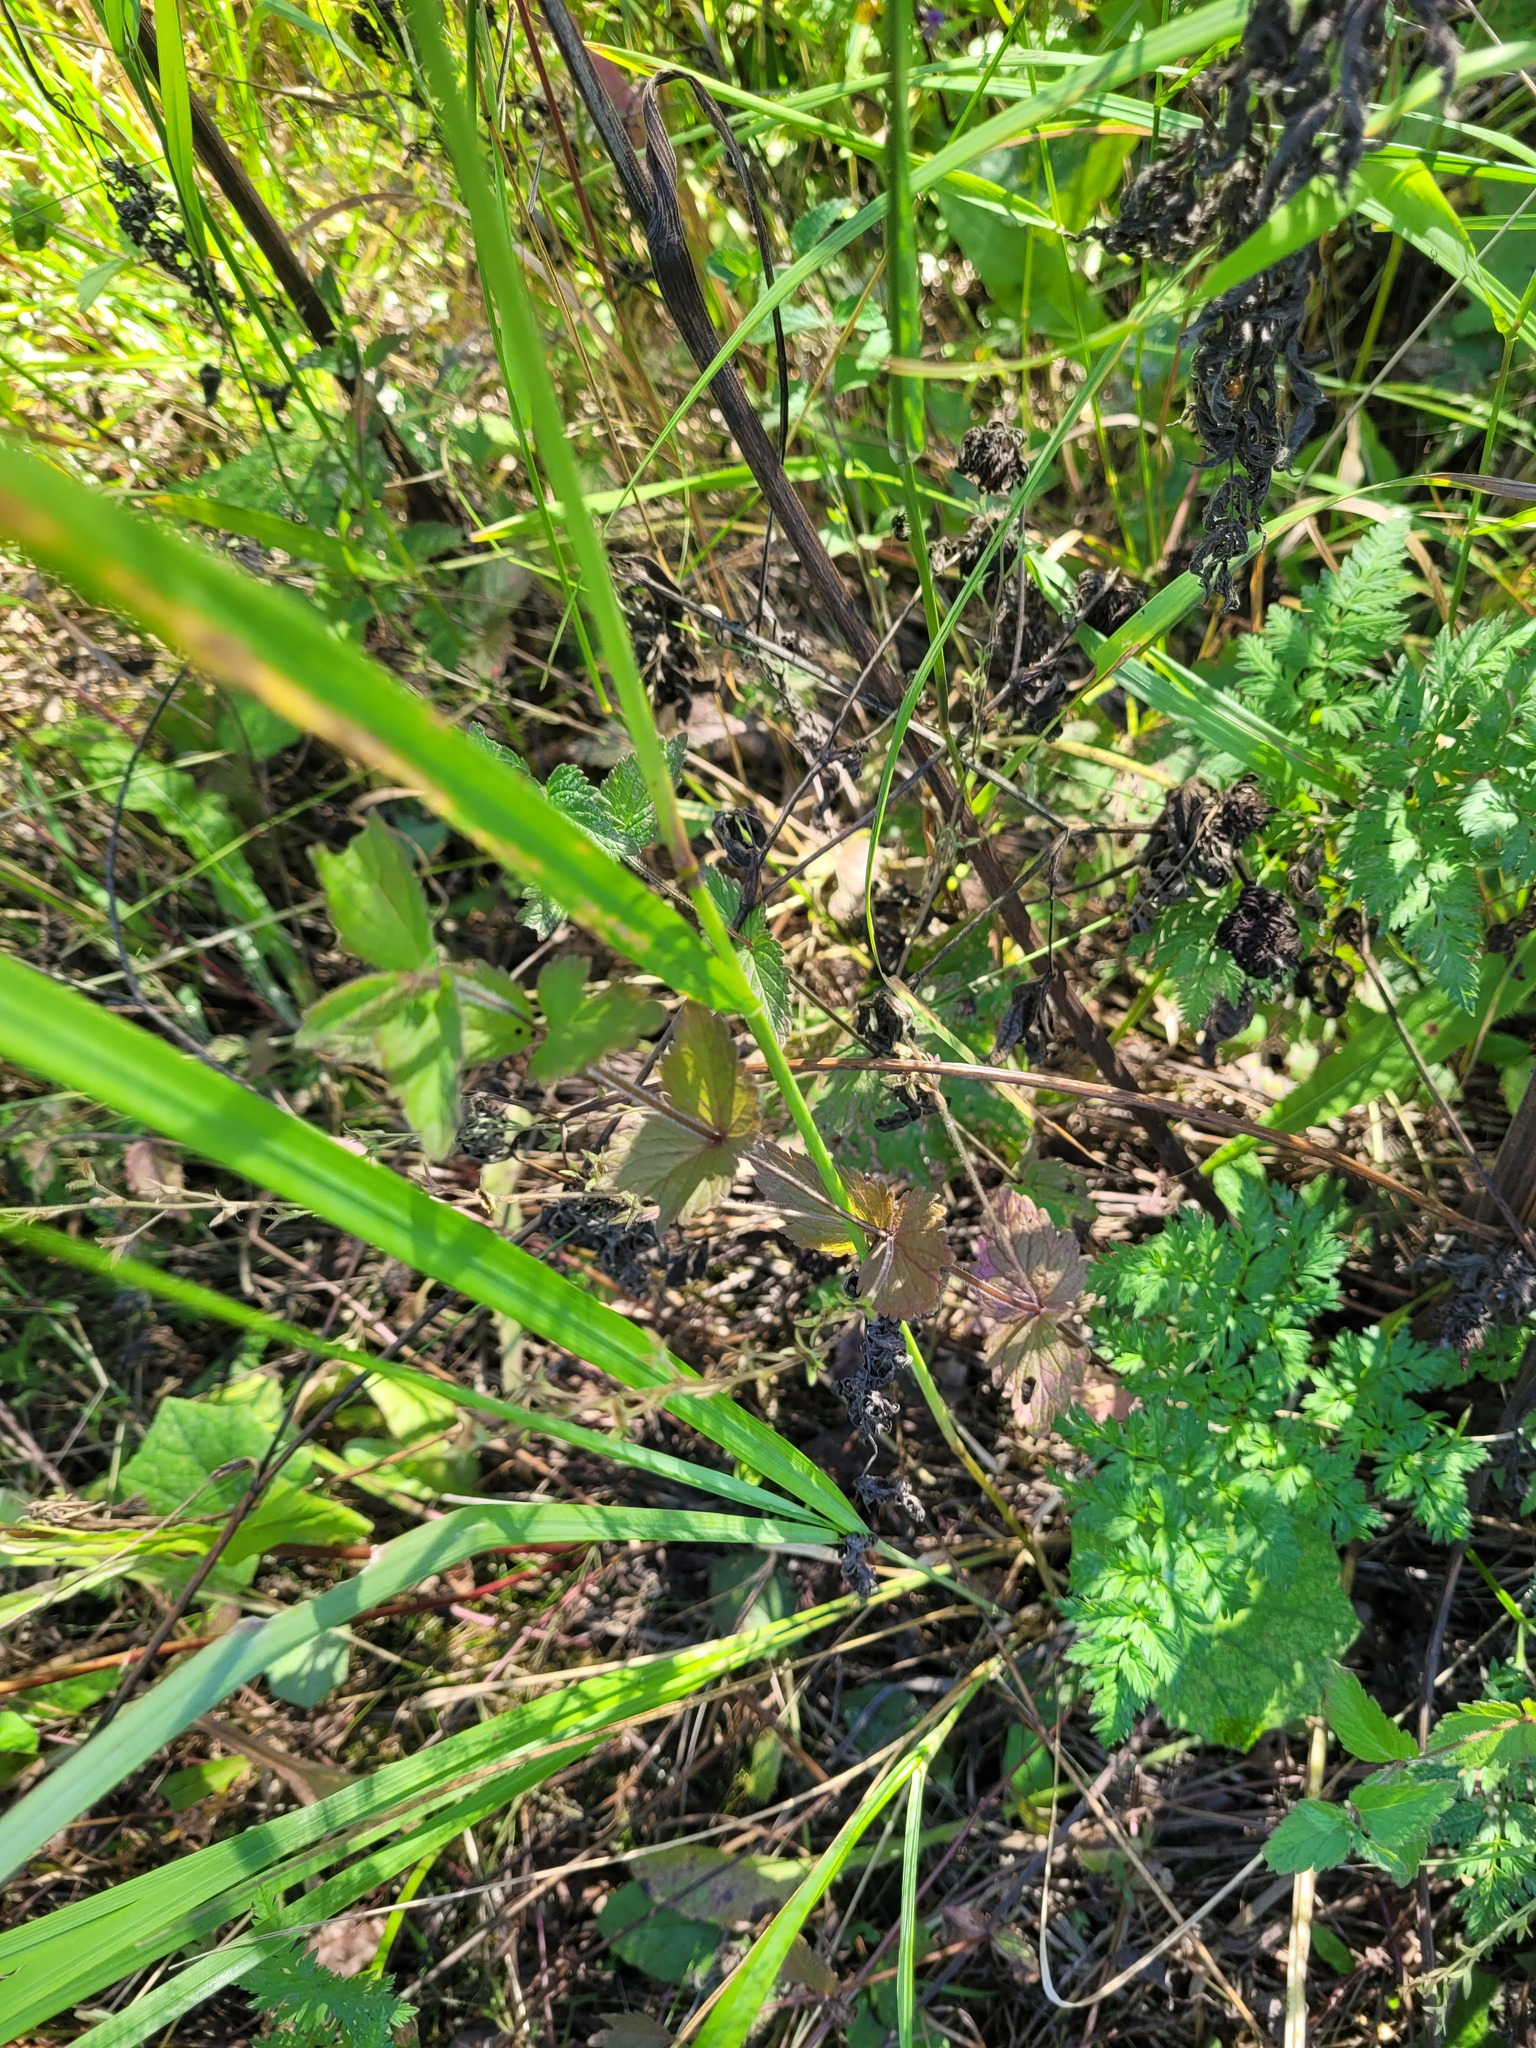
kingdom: Plantae
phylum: Tracheophyta
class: Magnoliopsida
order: Lamiales
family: Plantaginaceae
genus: Veronica
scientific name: Veronica chamaedrys
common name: Germander speedwell
